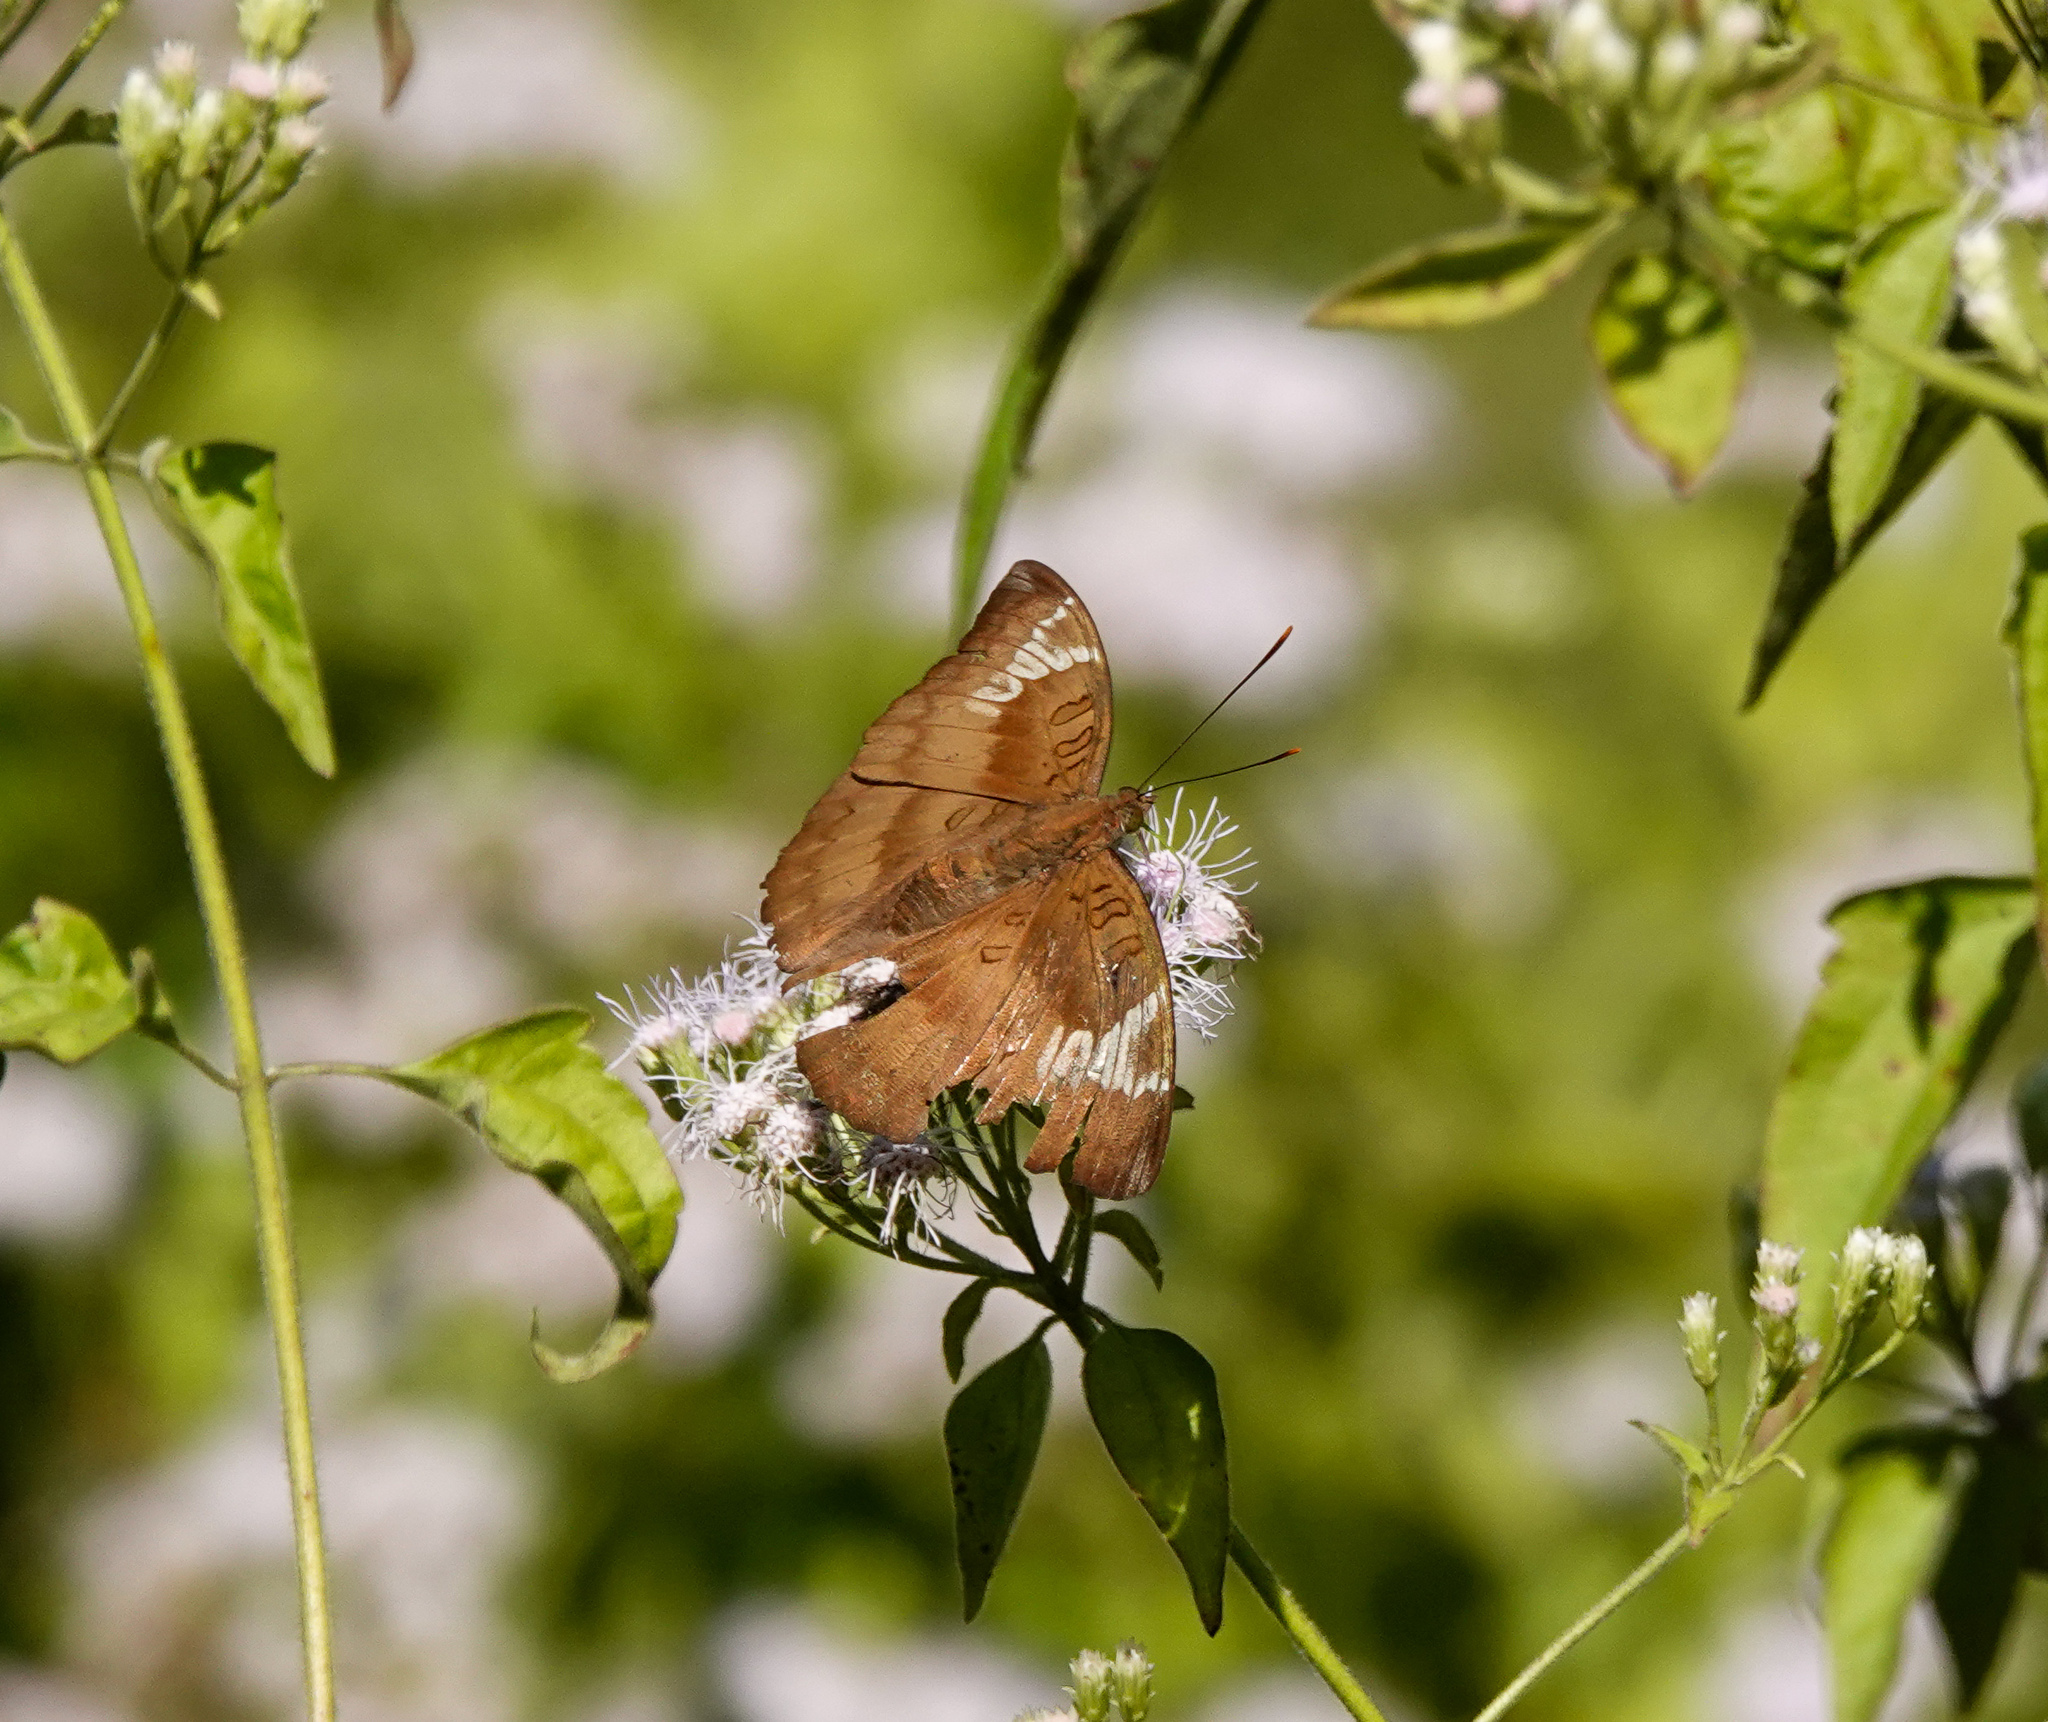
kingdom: Animalia
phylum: Arthropoda
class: Insecta
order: Lepidoptera
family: Nymphalidae
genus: Euthalia
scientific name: Euthalia aconthea
